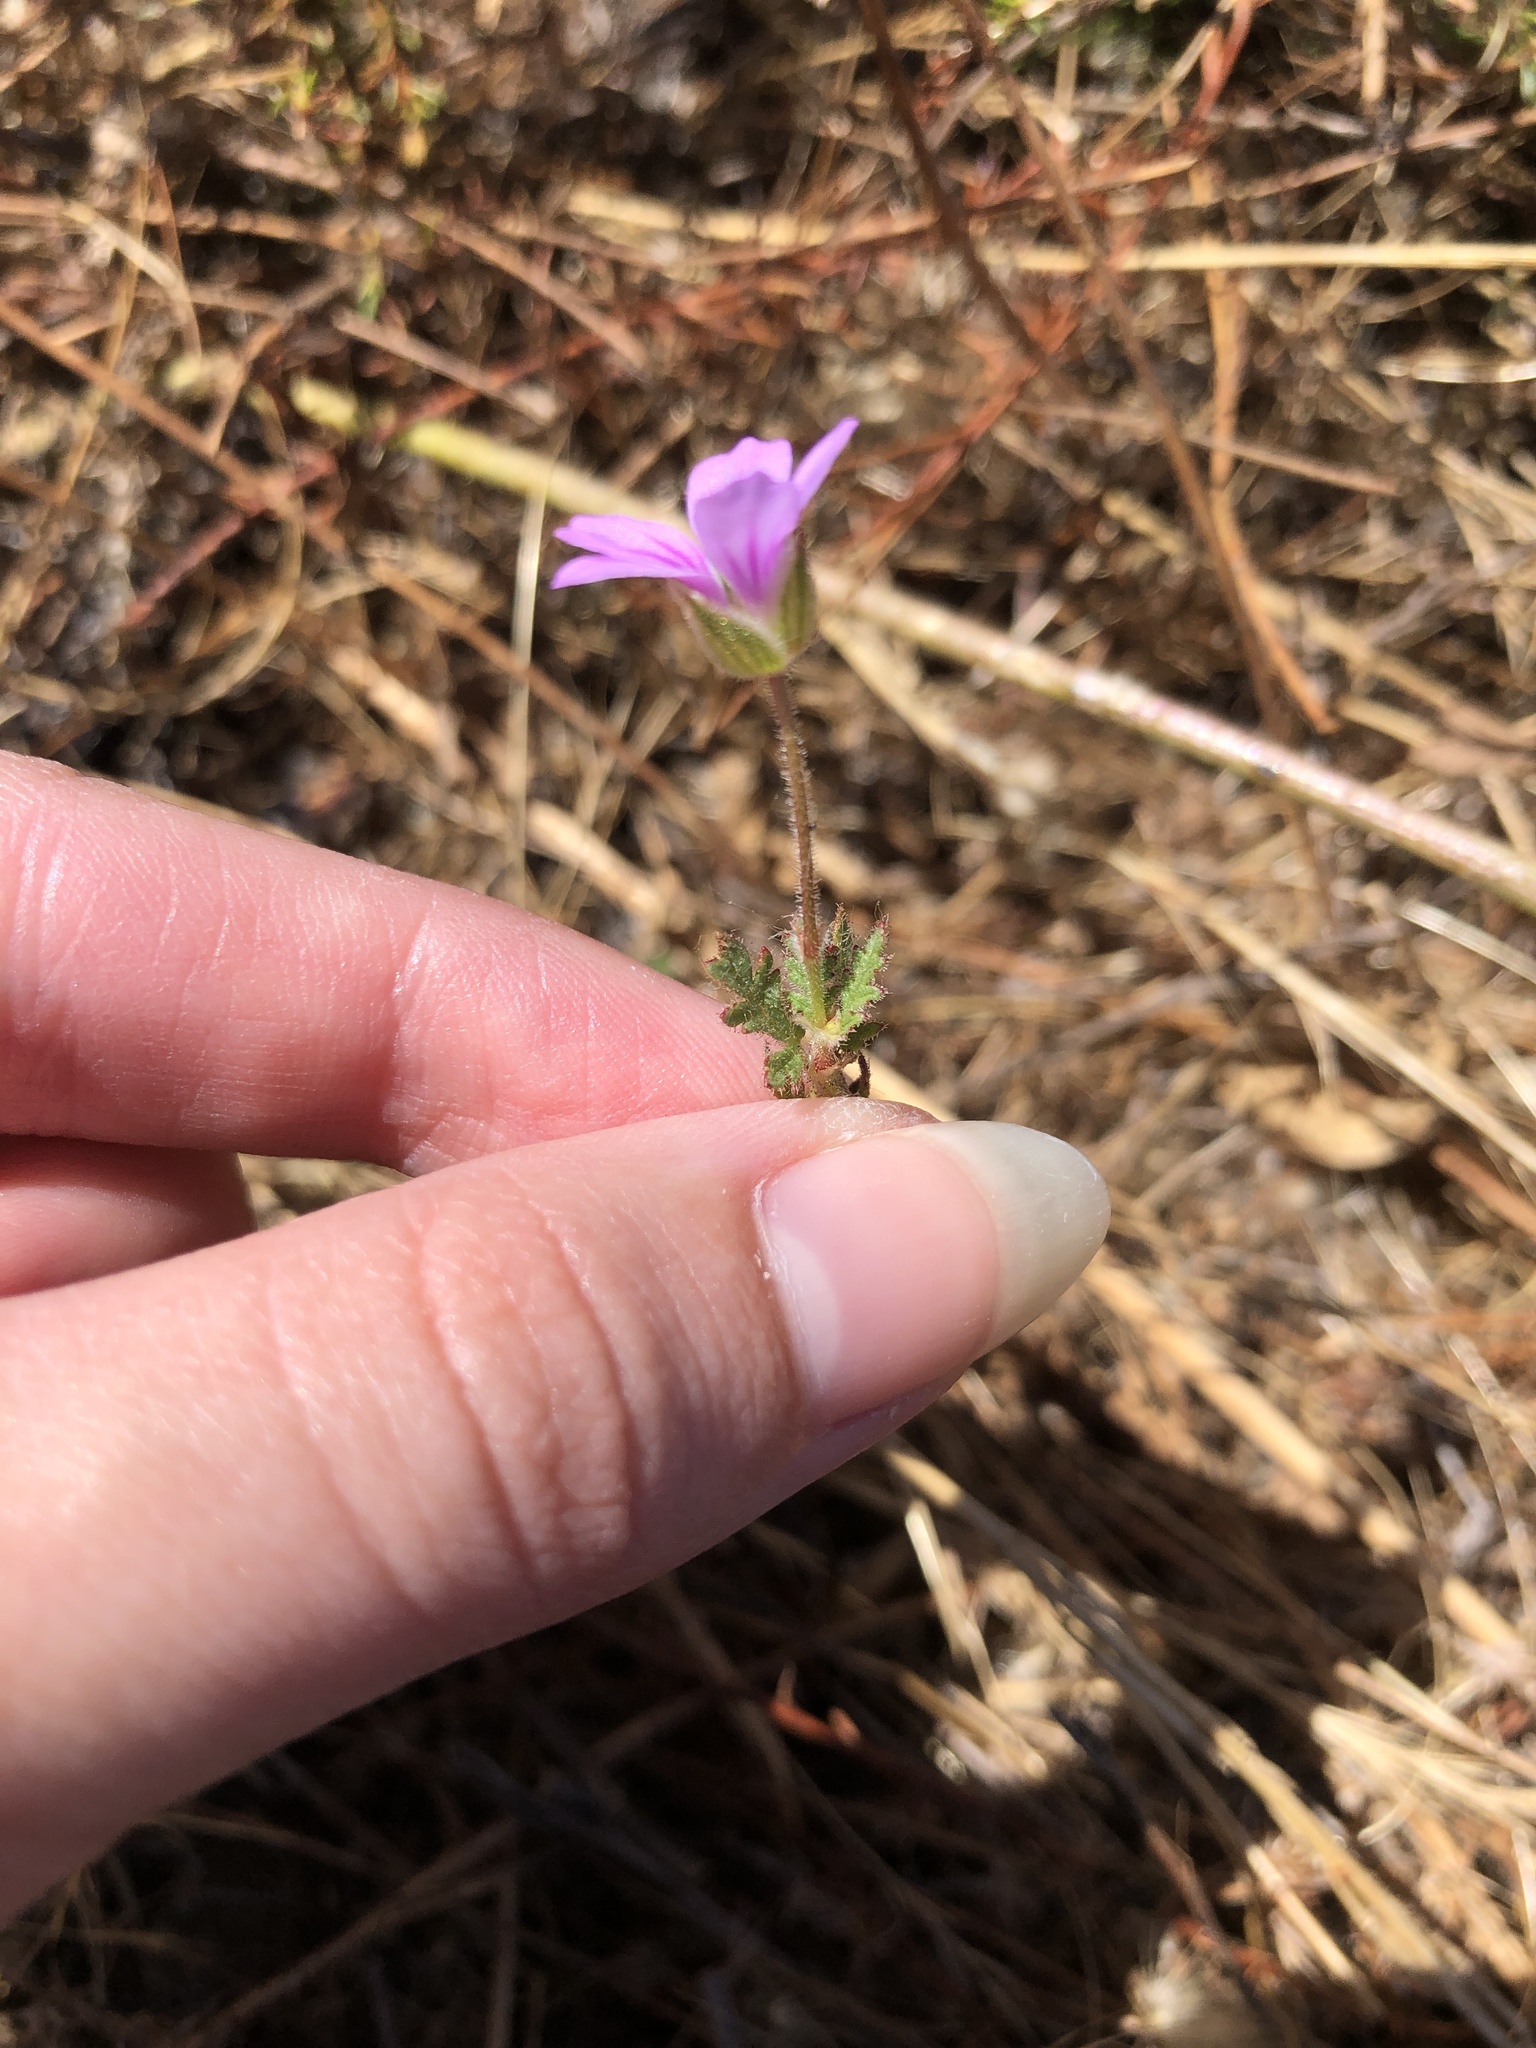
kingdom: Plantae
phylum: Tracheophyta
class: Magnoliopsida
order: Geraniales
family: Geraniaceae
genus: Erodium
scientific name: Erodium botrys
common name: Mediterranean stork's-bill
